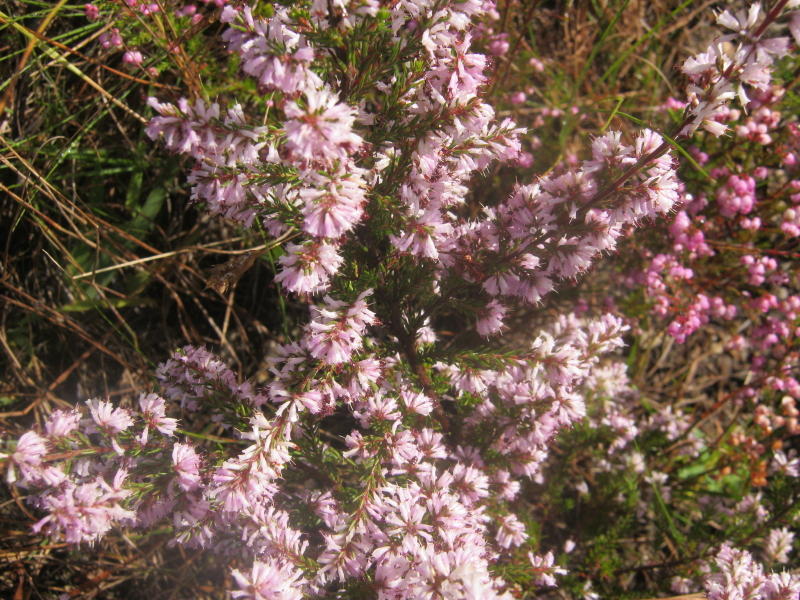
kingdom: Plantae
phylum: Tracheophyta
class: Magnoliopsida
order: Ericales
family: Ericaceae
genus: Erica
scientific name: Erica uberiflora
